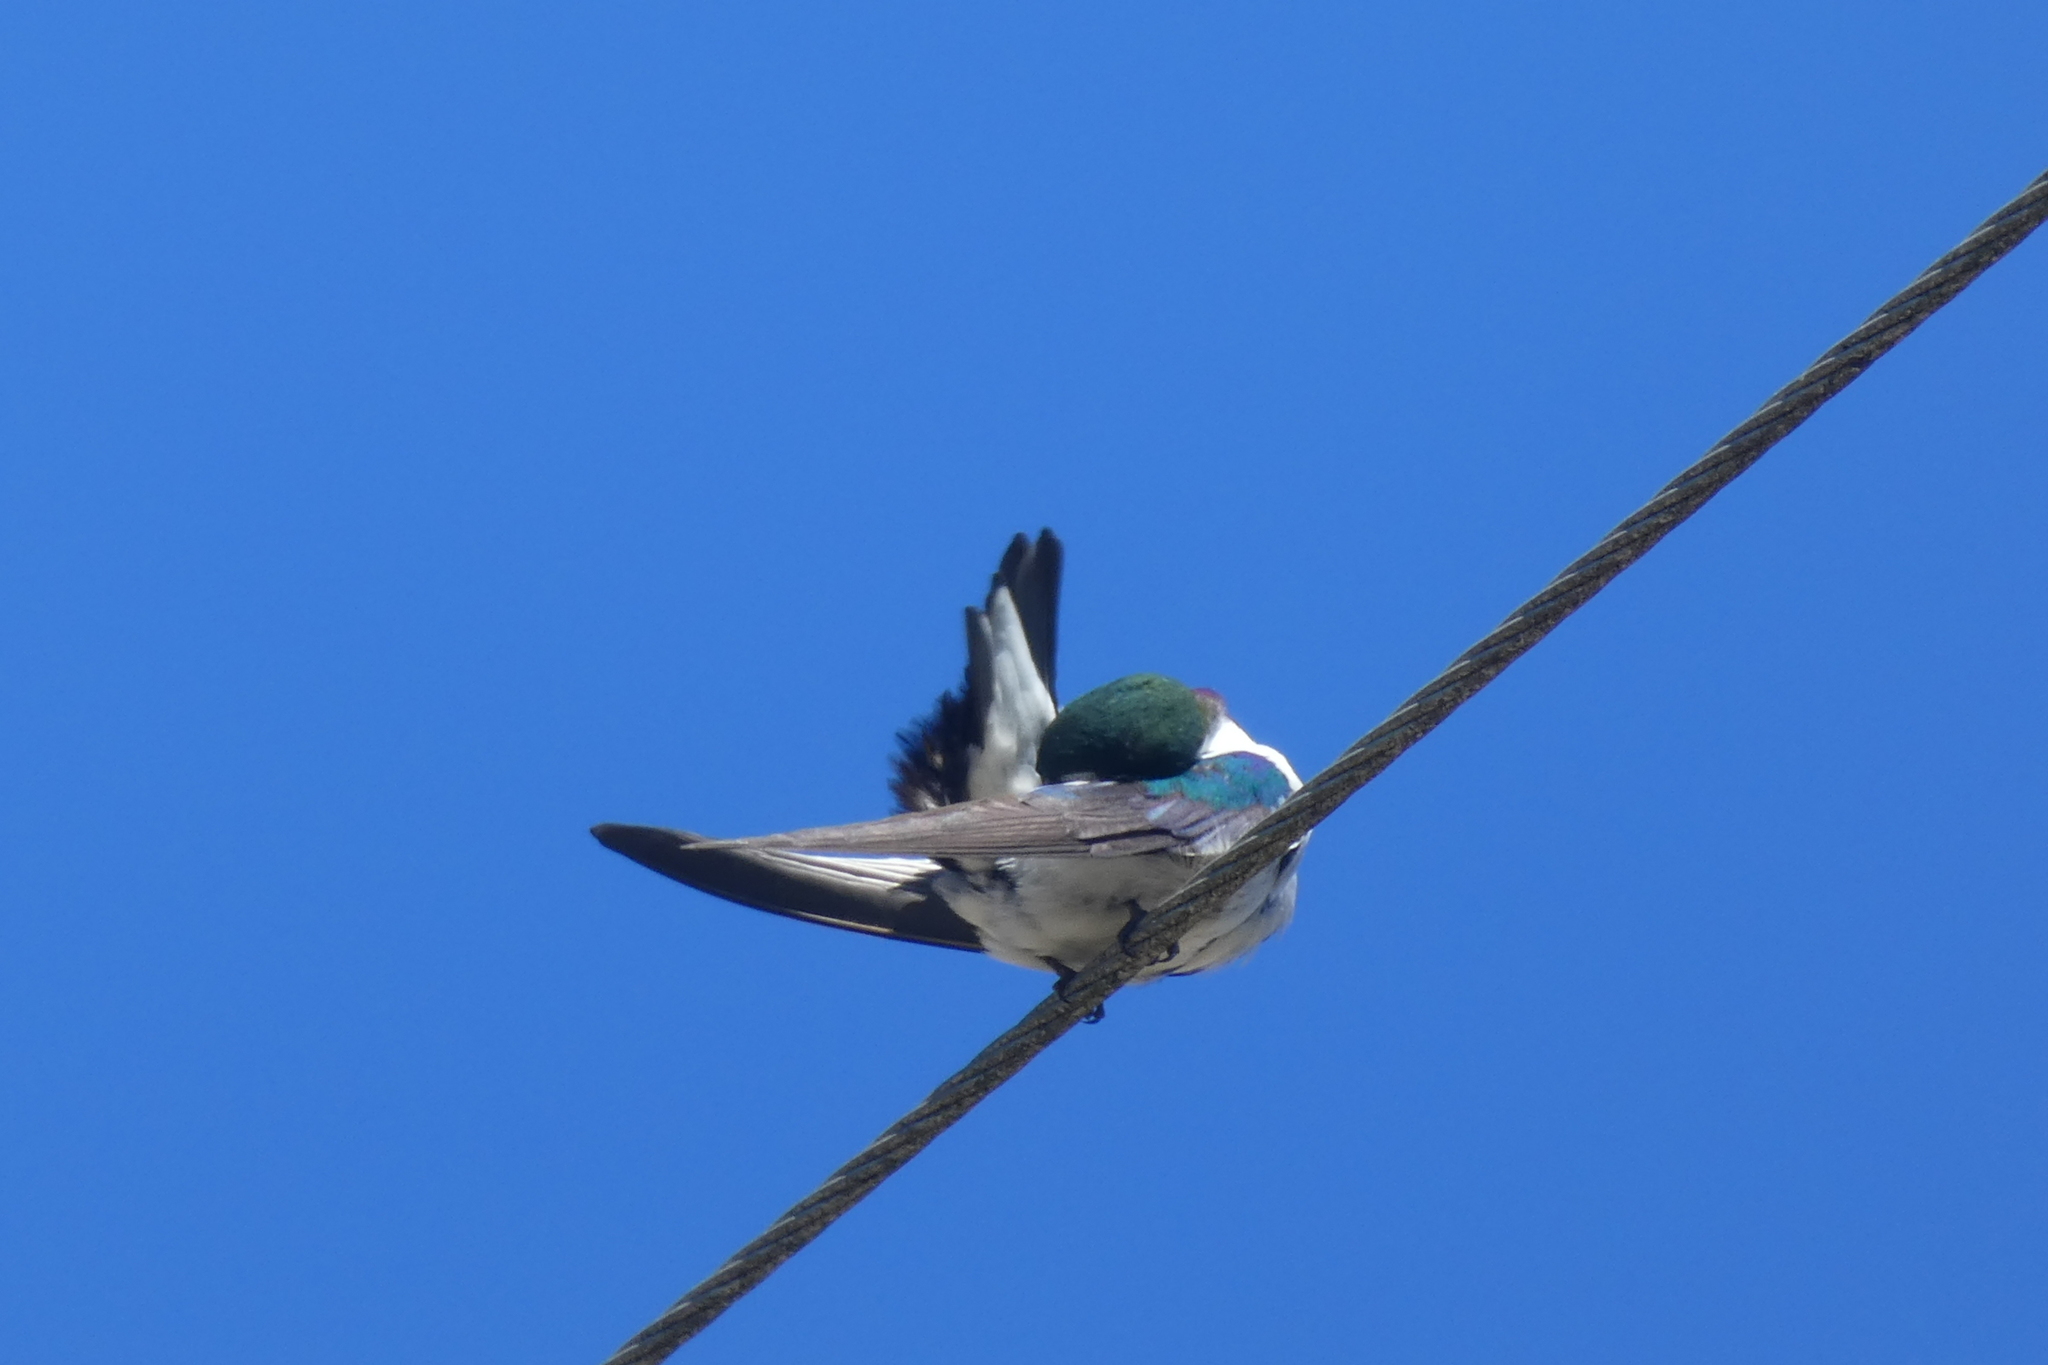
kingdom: Animalia
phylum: Chordata
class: Aves
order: Passeriformes
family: Hirundinidae
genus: Tachycineta
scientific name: Tachycineta thalassina
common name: Violet-green swallow
